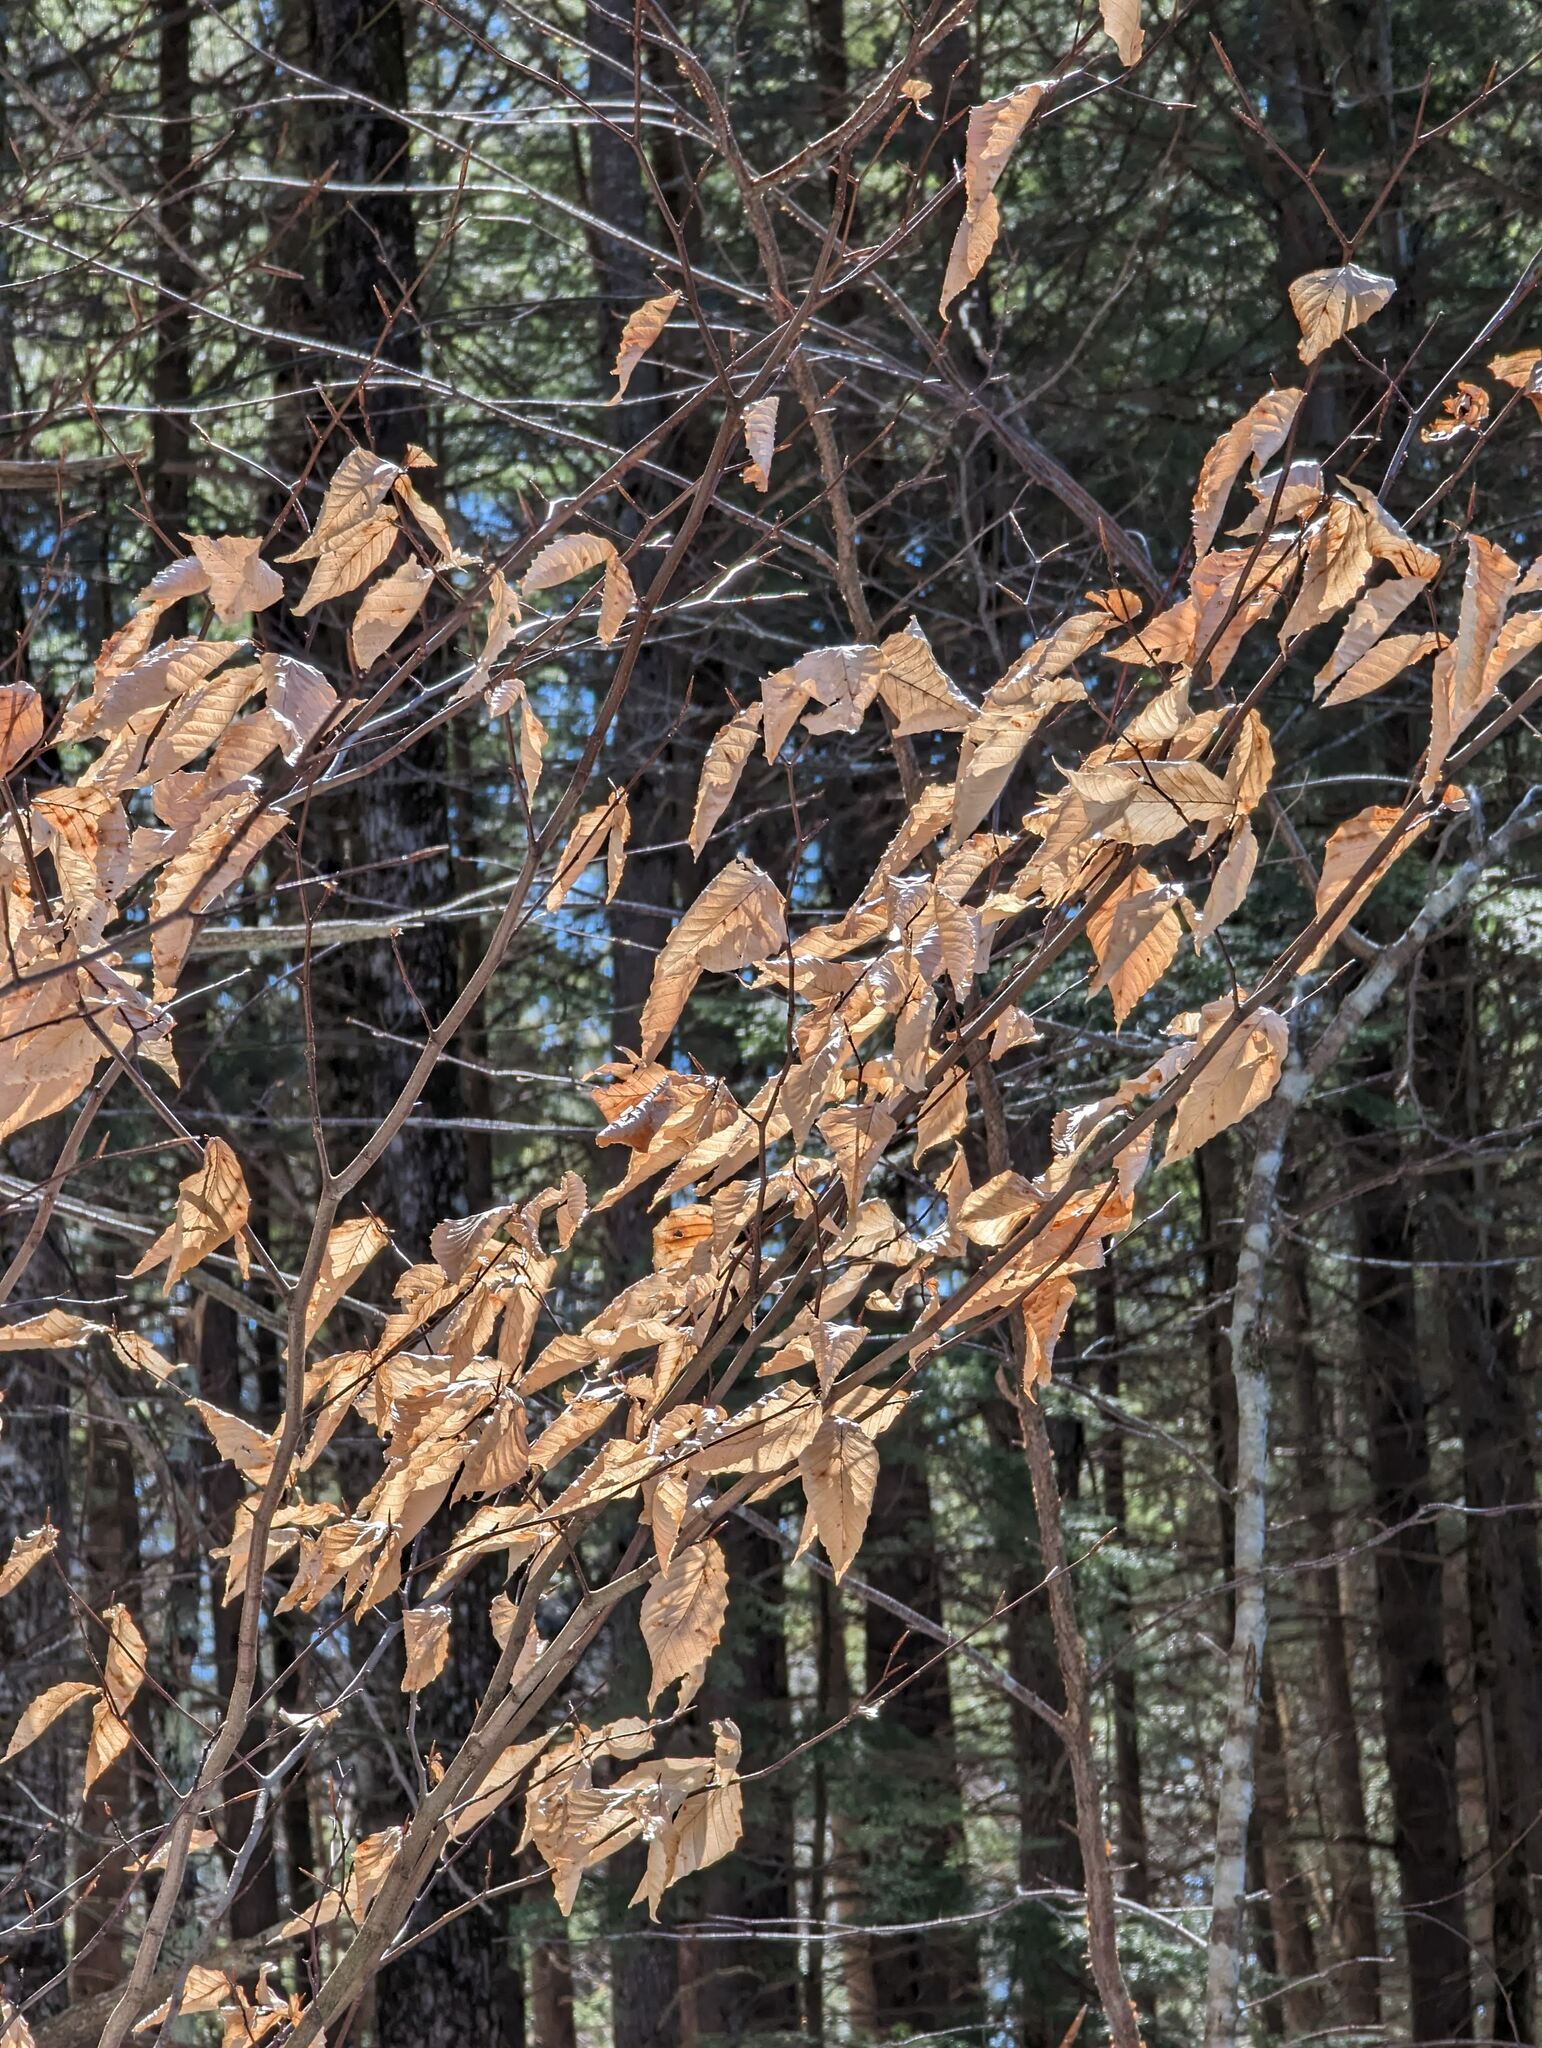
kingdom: Plantae
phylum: Tracheophyta
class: Magnoliopsida
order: Fagales
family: Fagaceae
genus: Fagus
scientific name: Fagus grandifolia
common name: American beech
